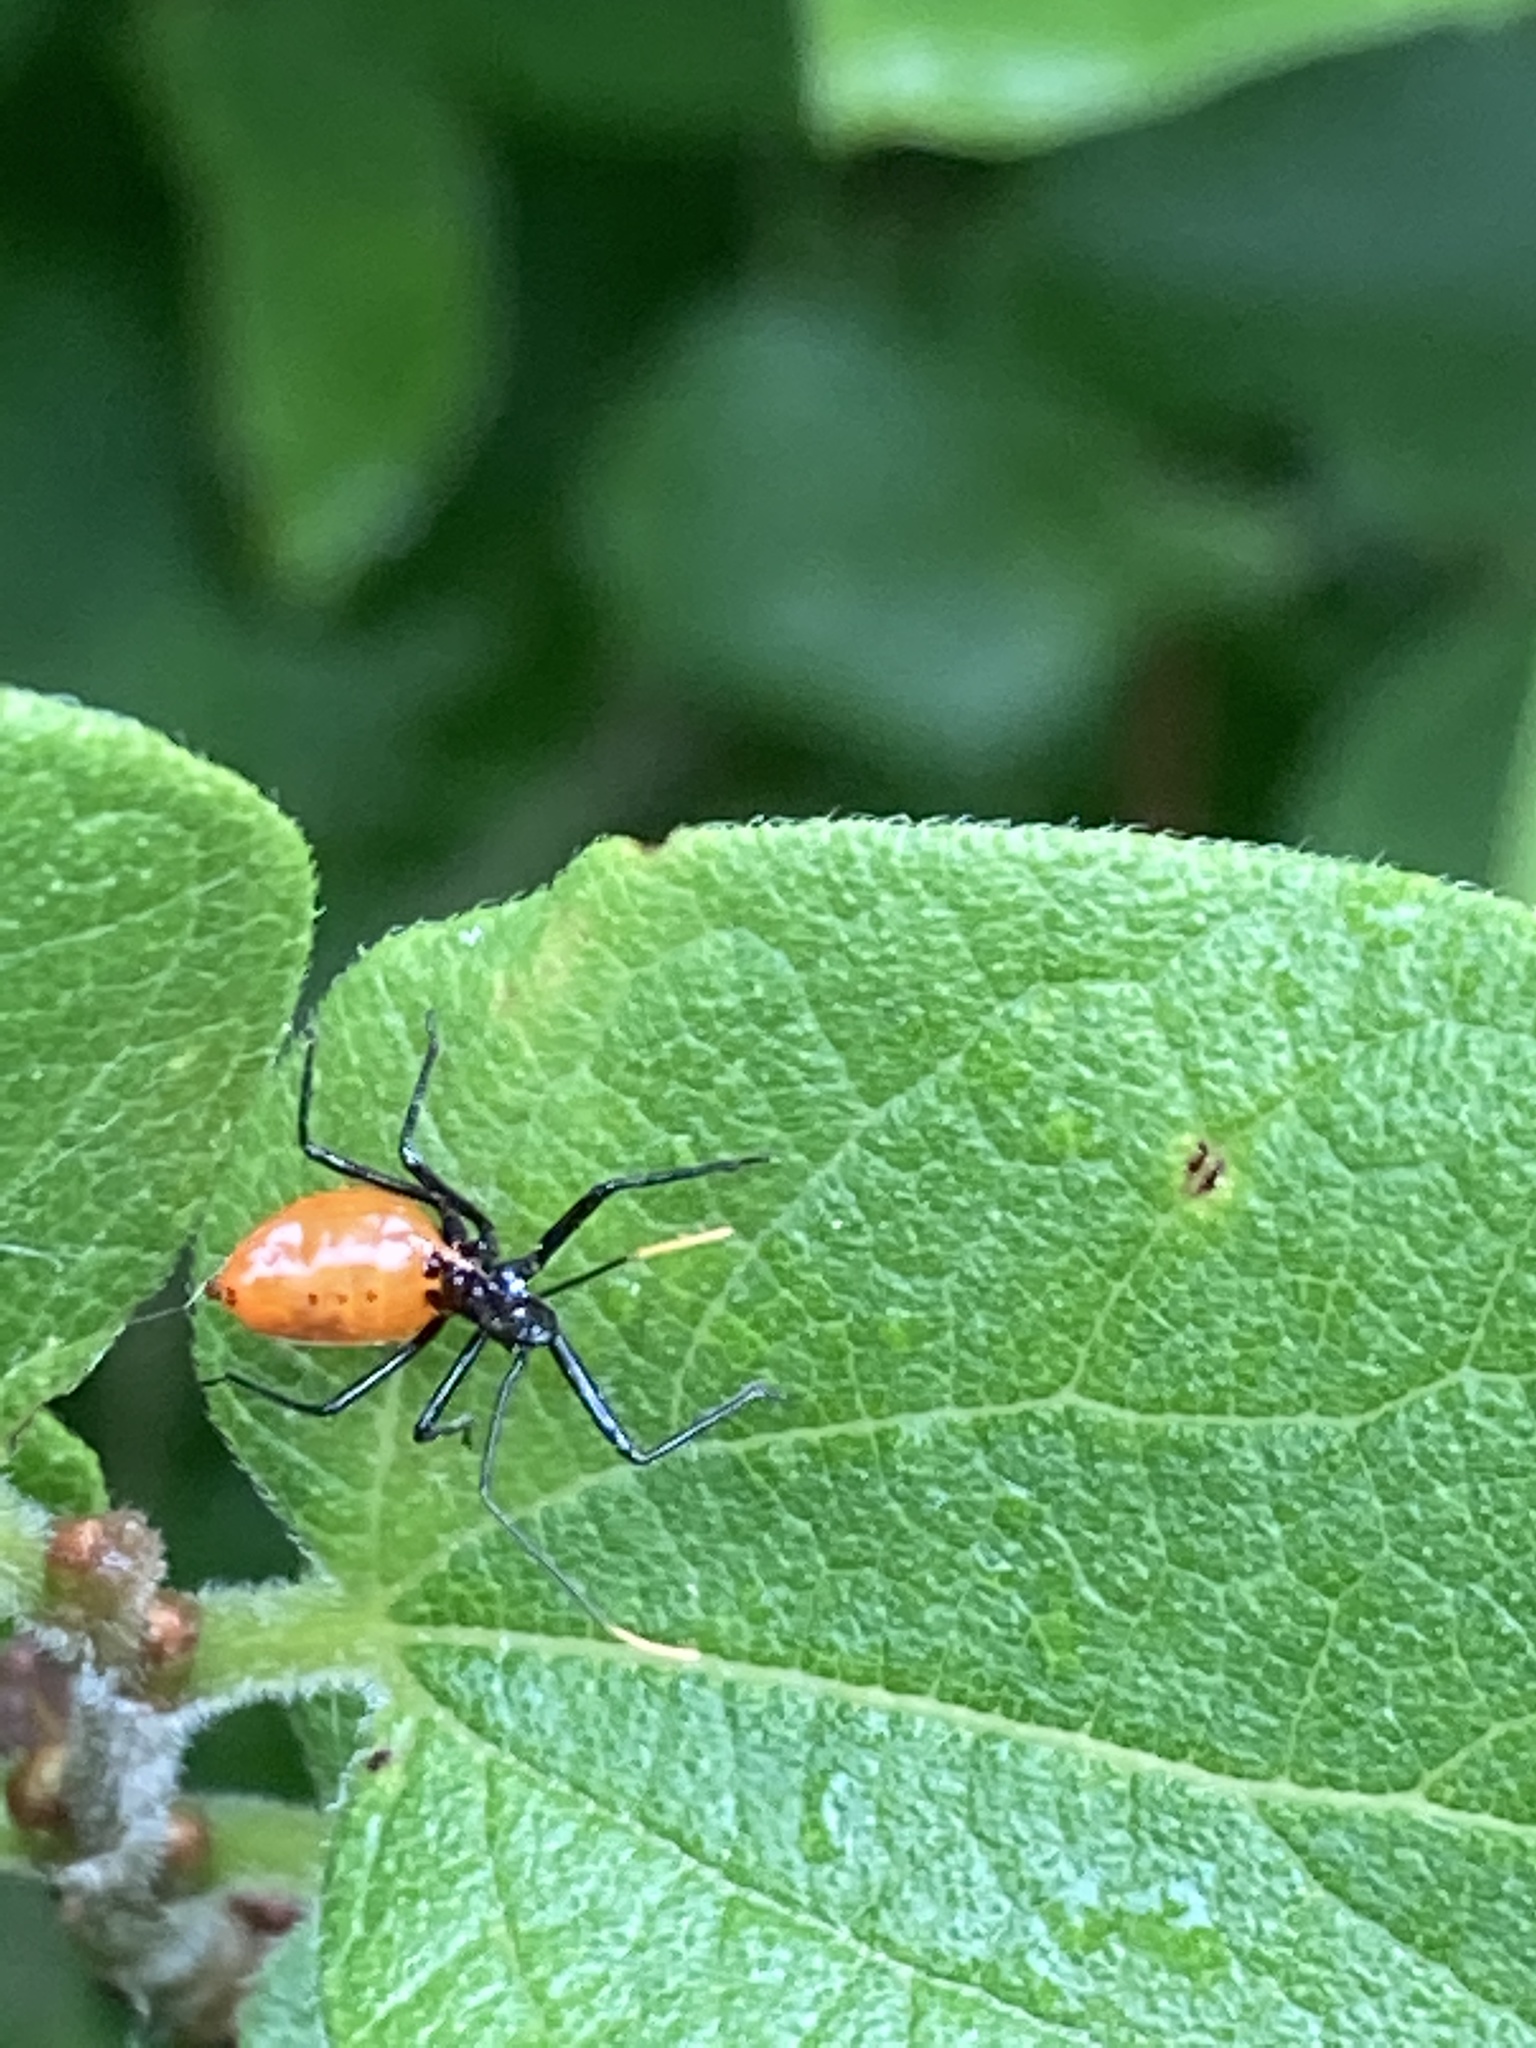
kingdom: Animalia
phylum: Arthropoda
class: Insecta
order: Hemiptera
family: Reduviidae
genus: Arilus
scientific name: Arilus cristatus
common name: North american wheel bug
